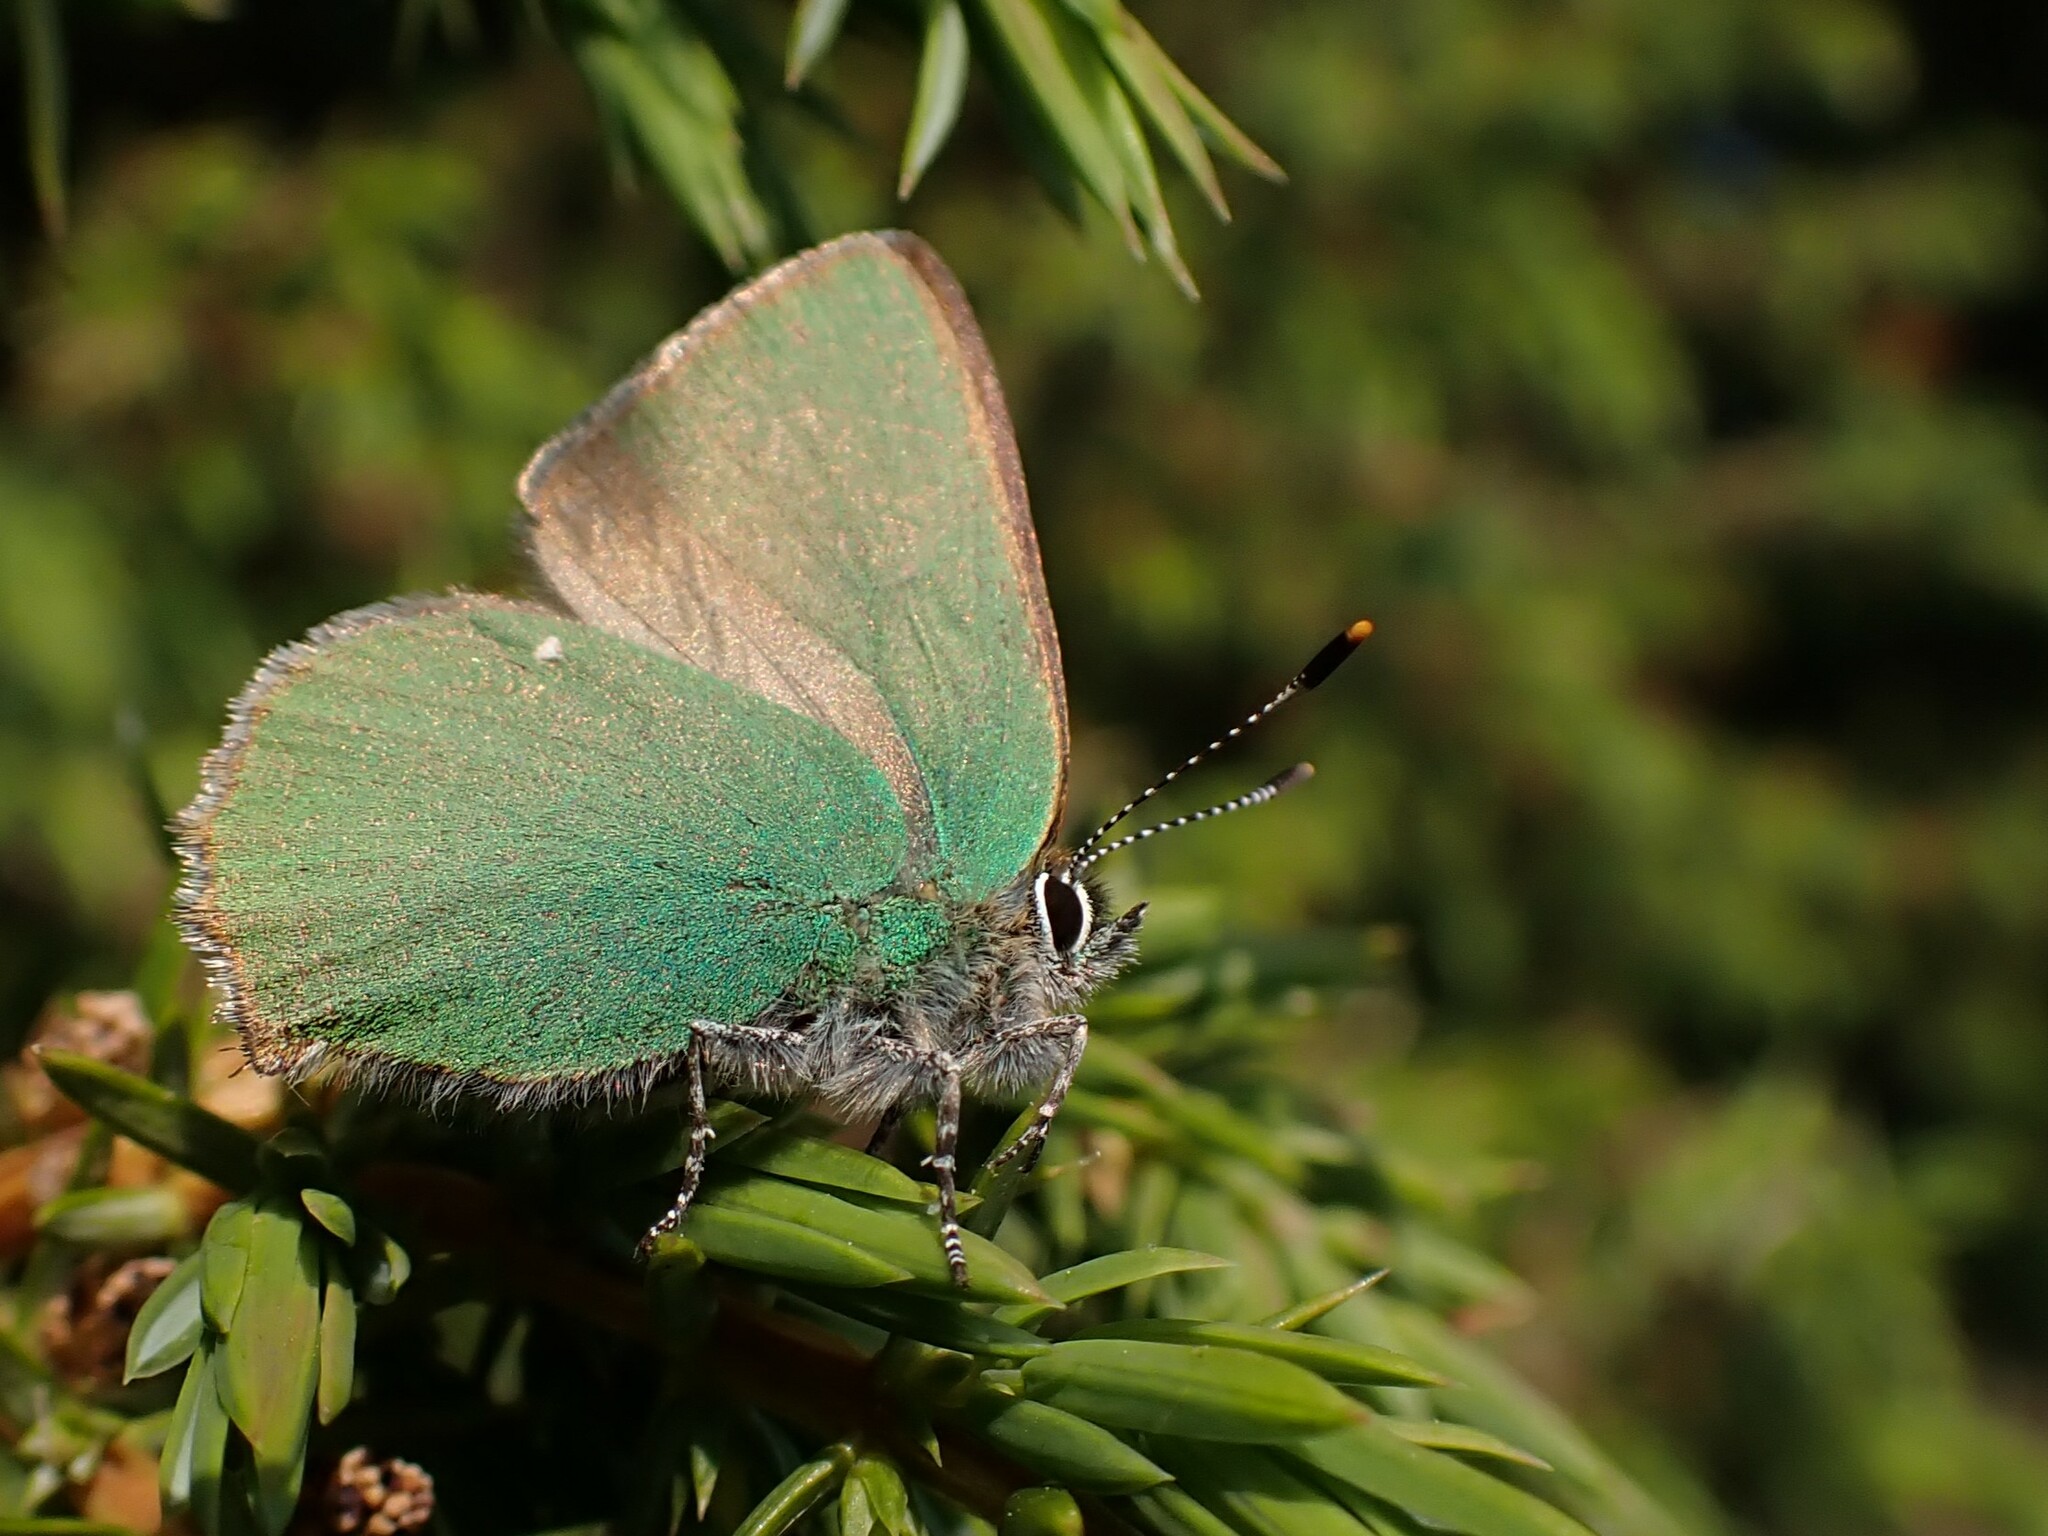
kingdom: Animalia
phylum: Arthropoda
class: Insecta
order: Lepidoptera
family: Lycaenidae
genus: Callophrys
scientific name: Callophrys rubi
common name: Green hairstreak
